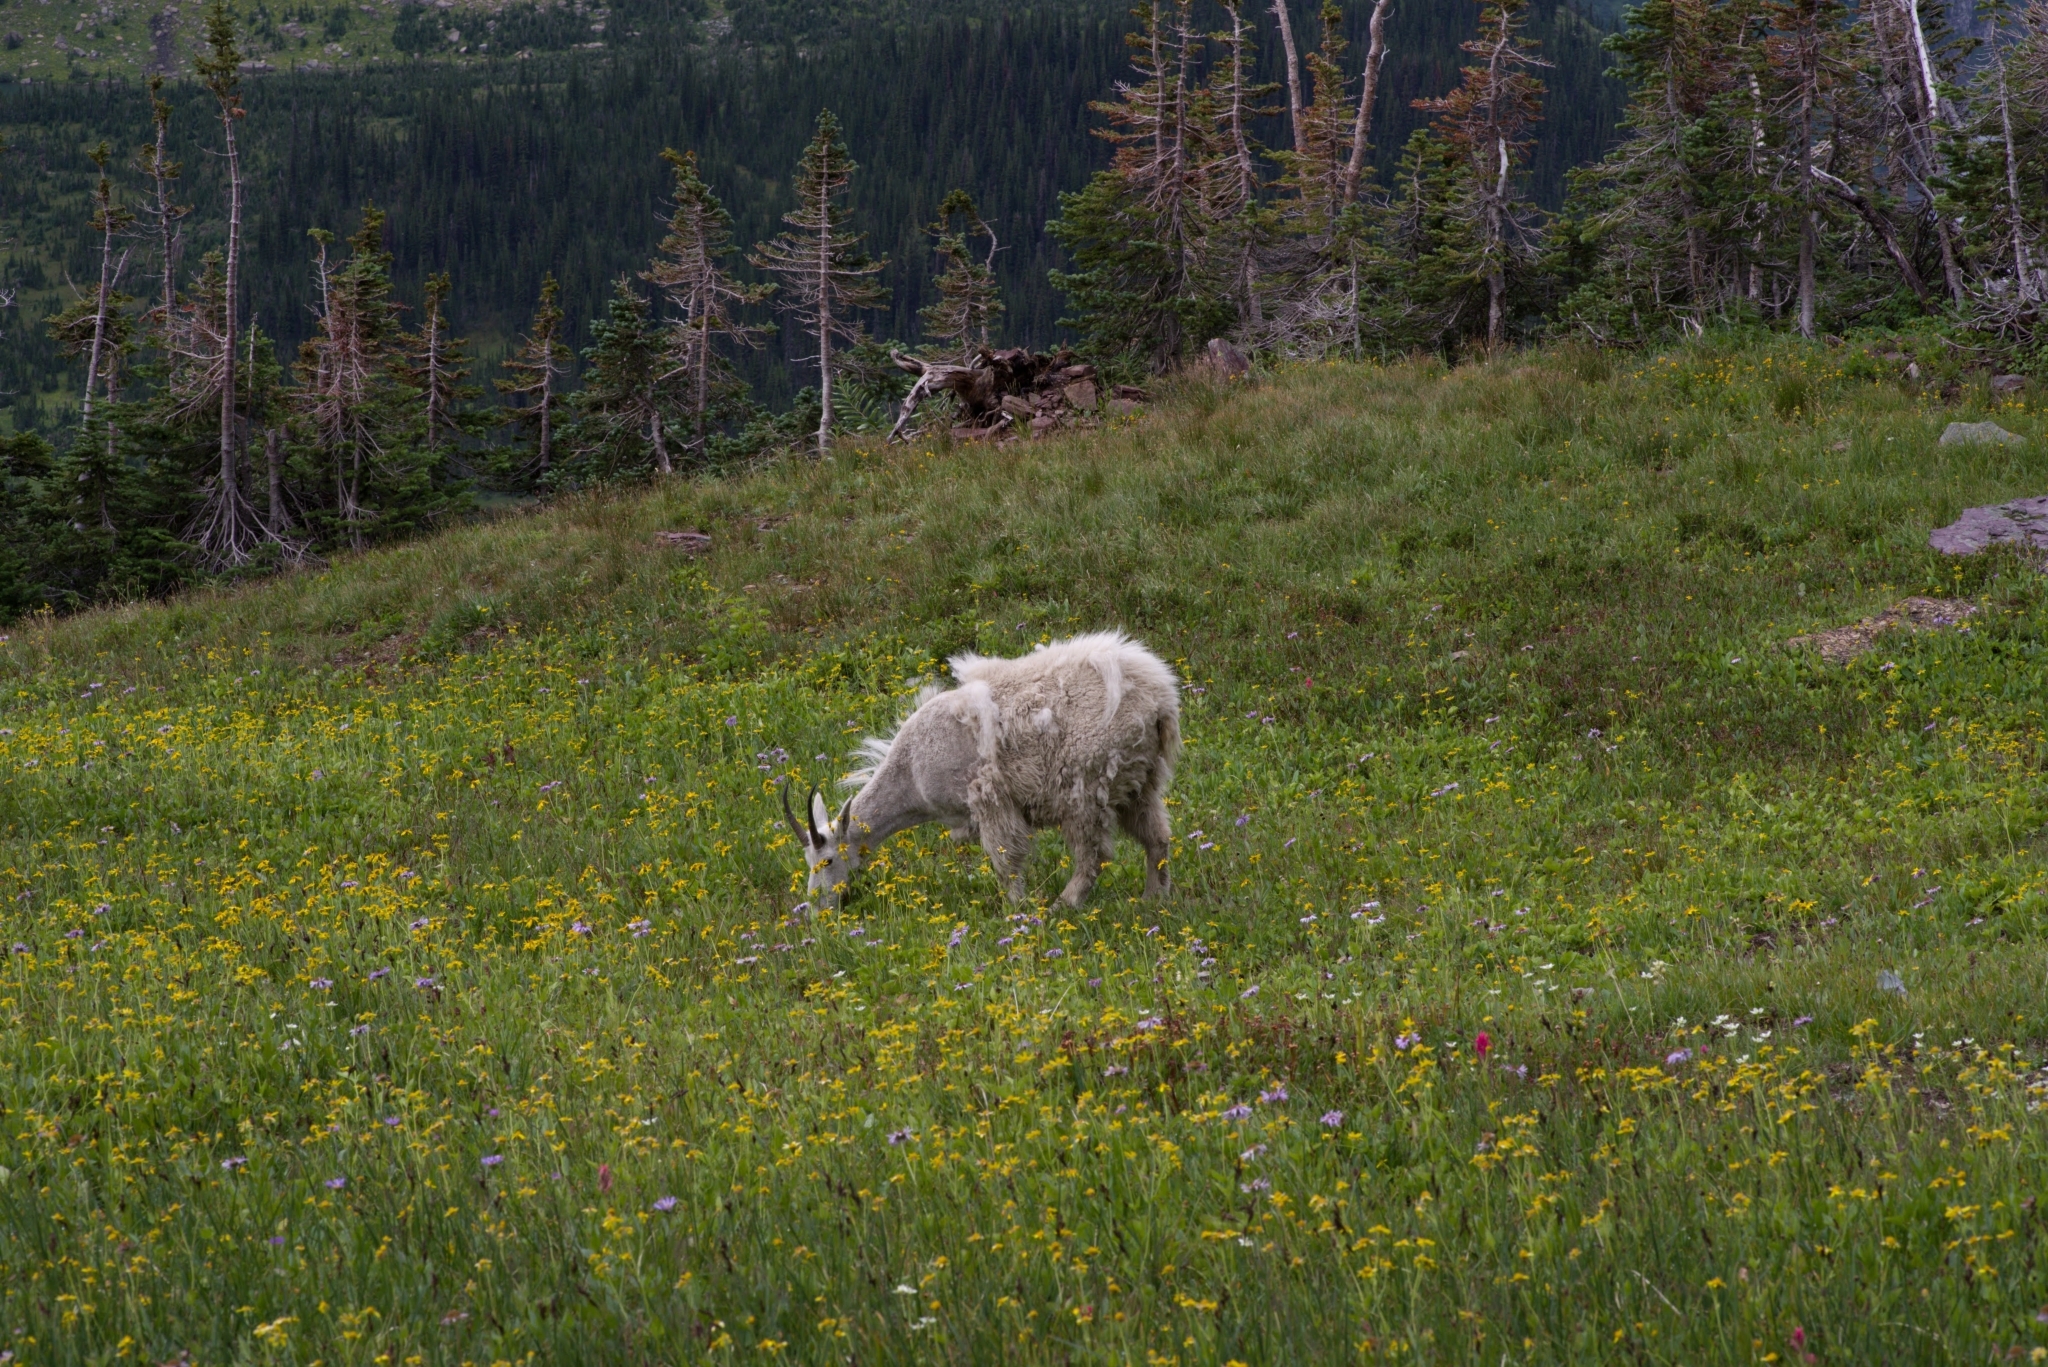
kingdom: Animalia
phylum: Chordata
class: Mammalia
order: Artiodactyla
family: Bovidae
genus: Oreamnos
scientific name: Oreamnos americanus
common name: Mountain goat
